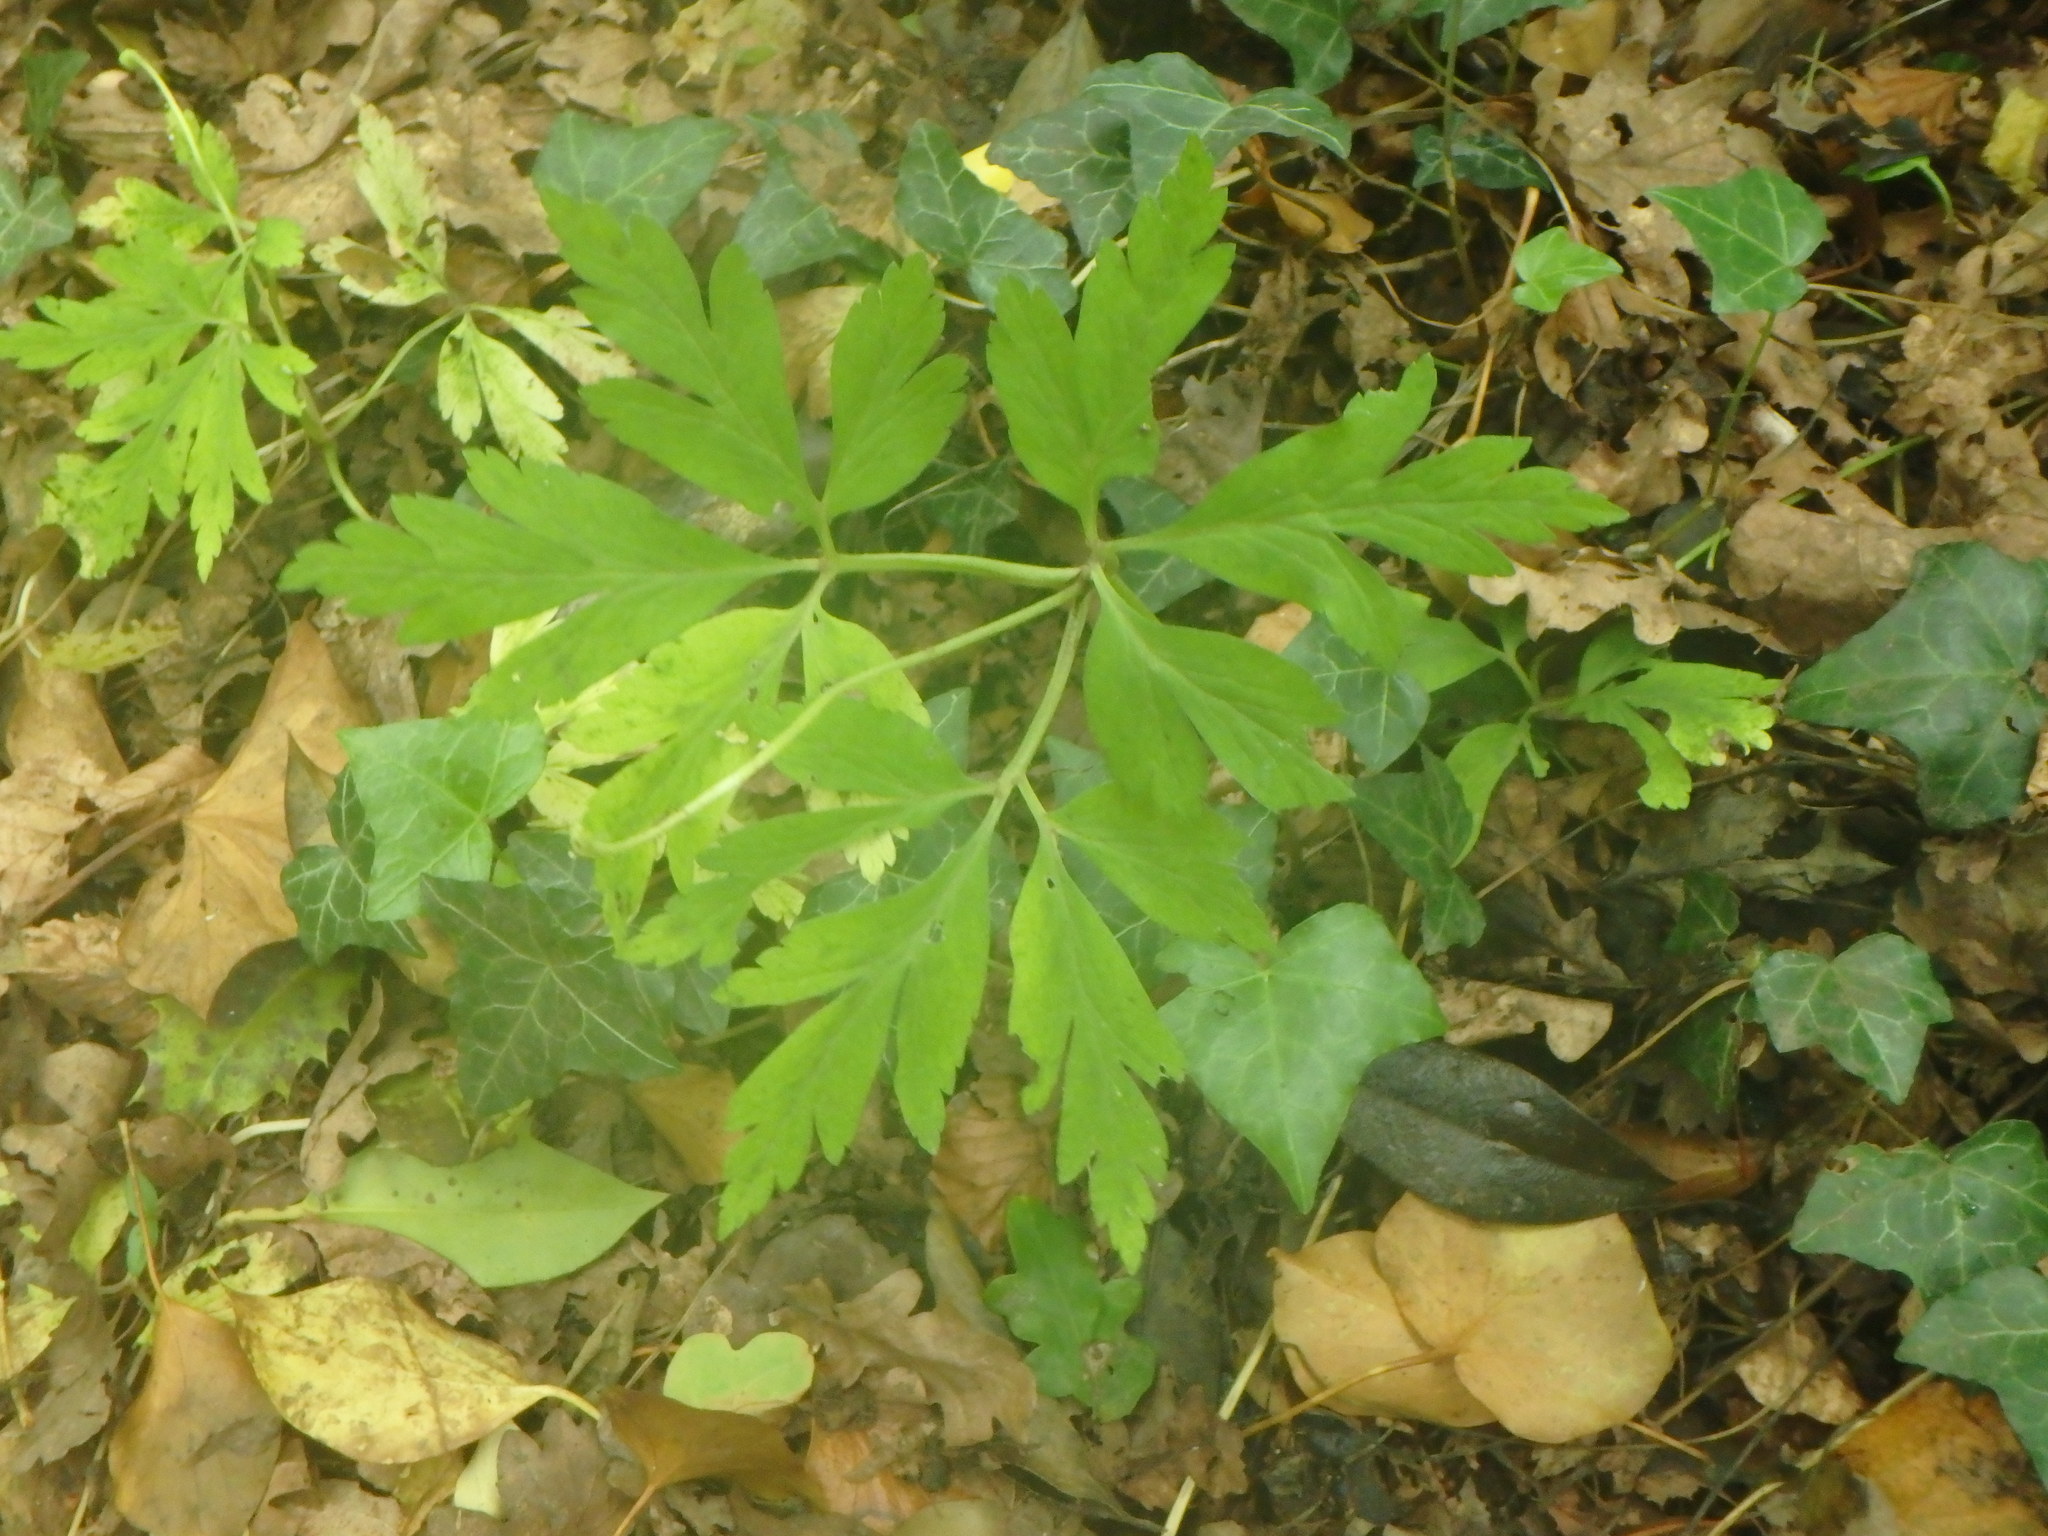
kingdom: Plantae
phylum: Tracheophyta
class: Magnoliopsida
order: Ranunculales
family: Ranunculaceae
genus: Anemone
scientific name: Anemone nemorosa
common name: Wood anemone
